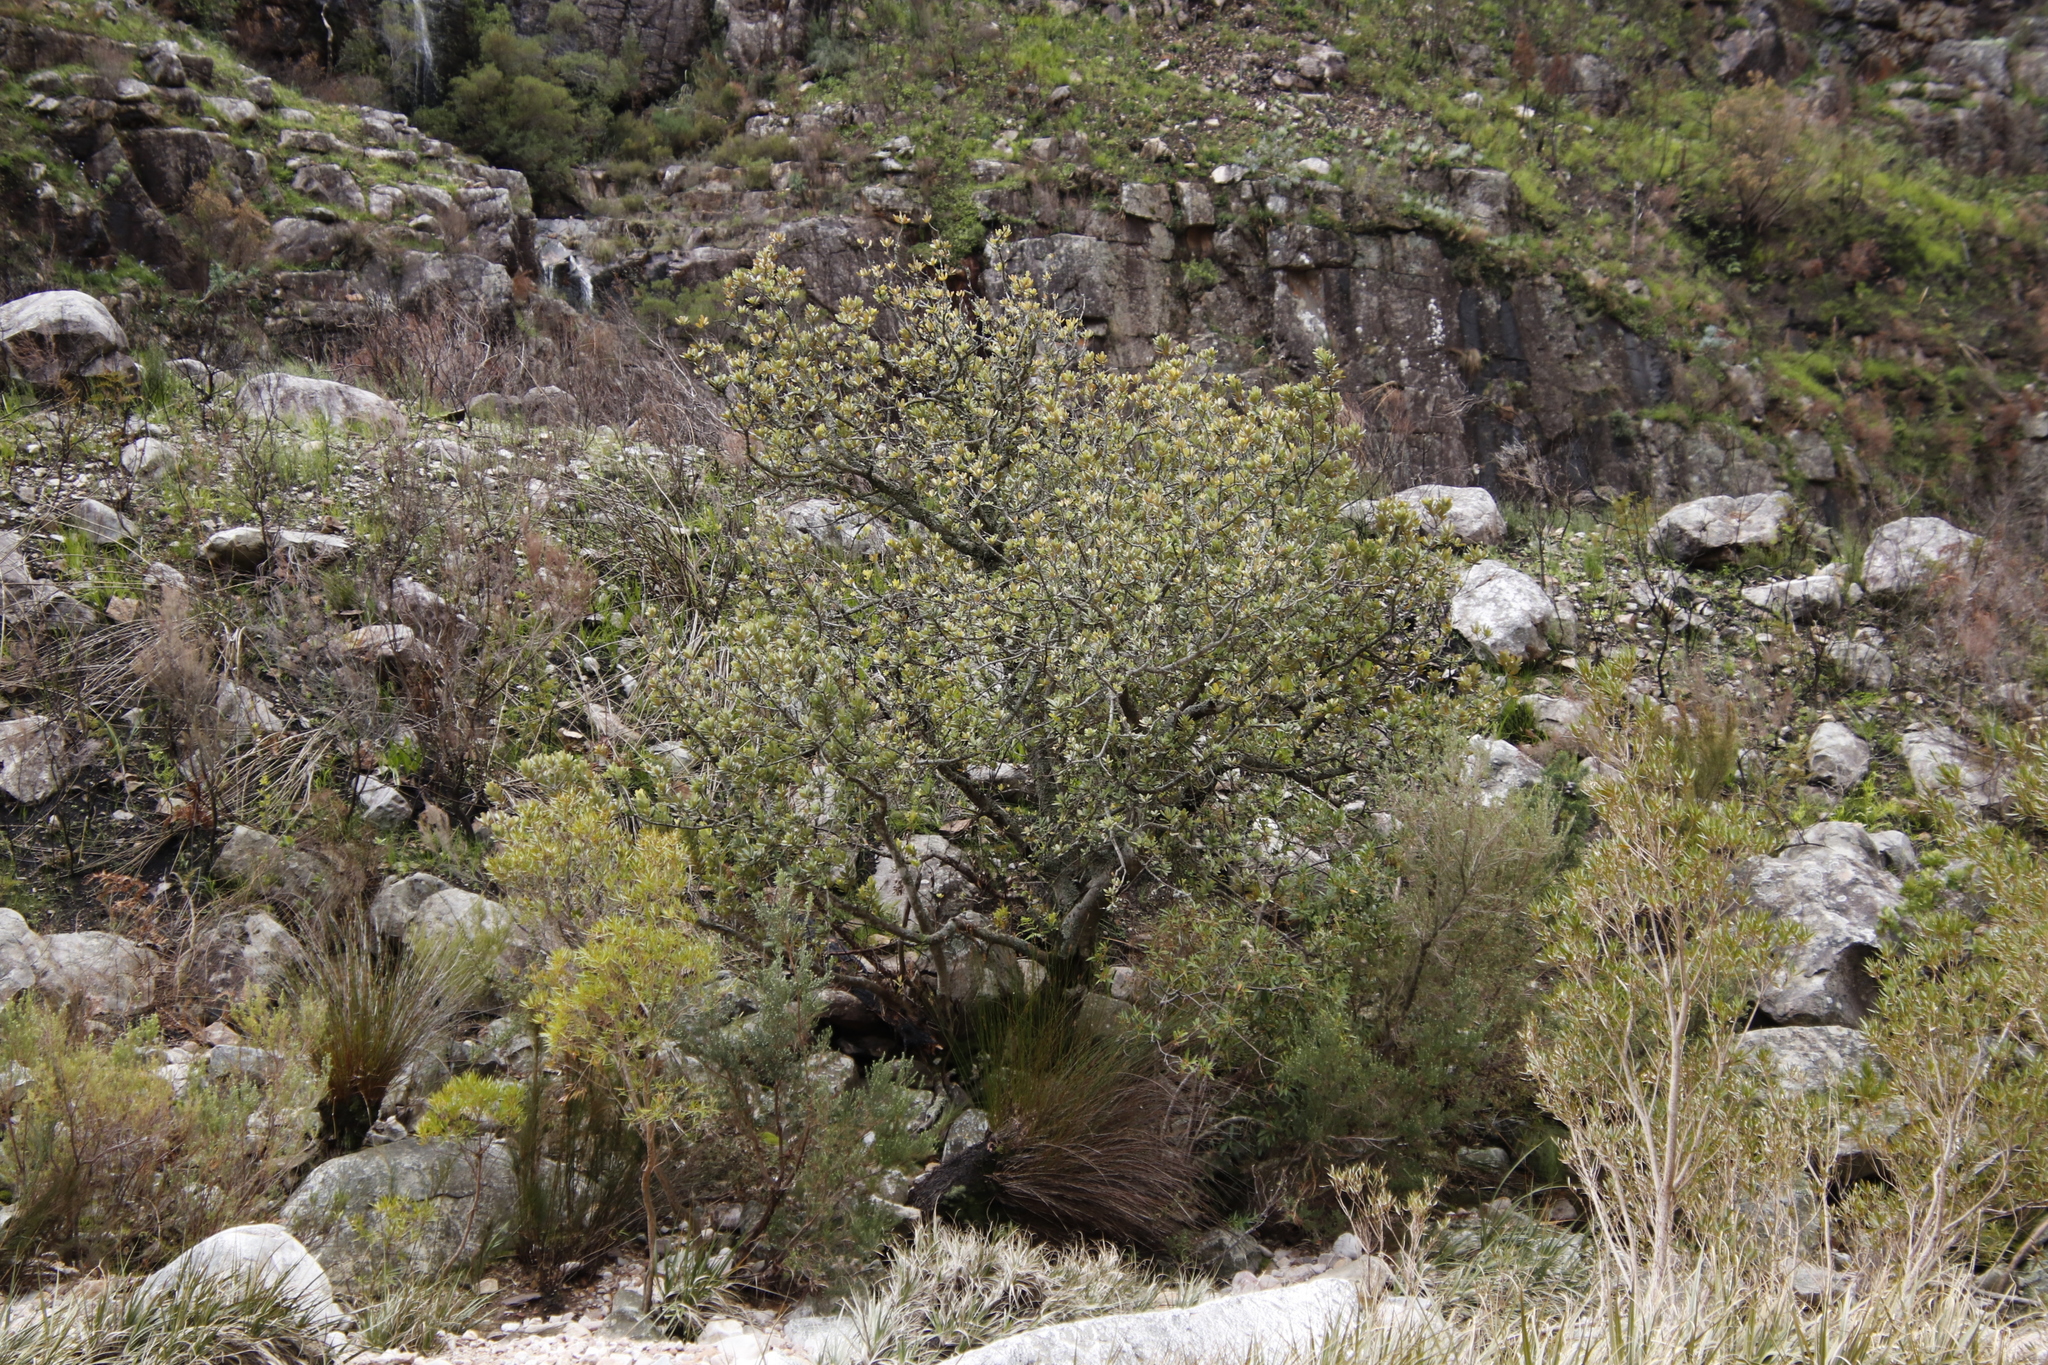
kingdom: Plantae
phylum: Tracheophyta
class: Magnoliopsida
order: Sapindales
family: Anacardiaceae
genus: Heeria
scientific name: Heeria argentea
